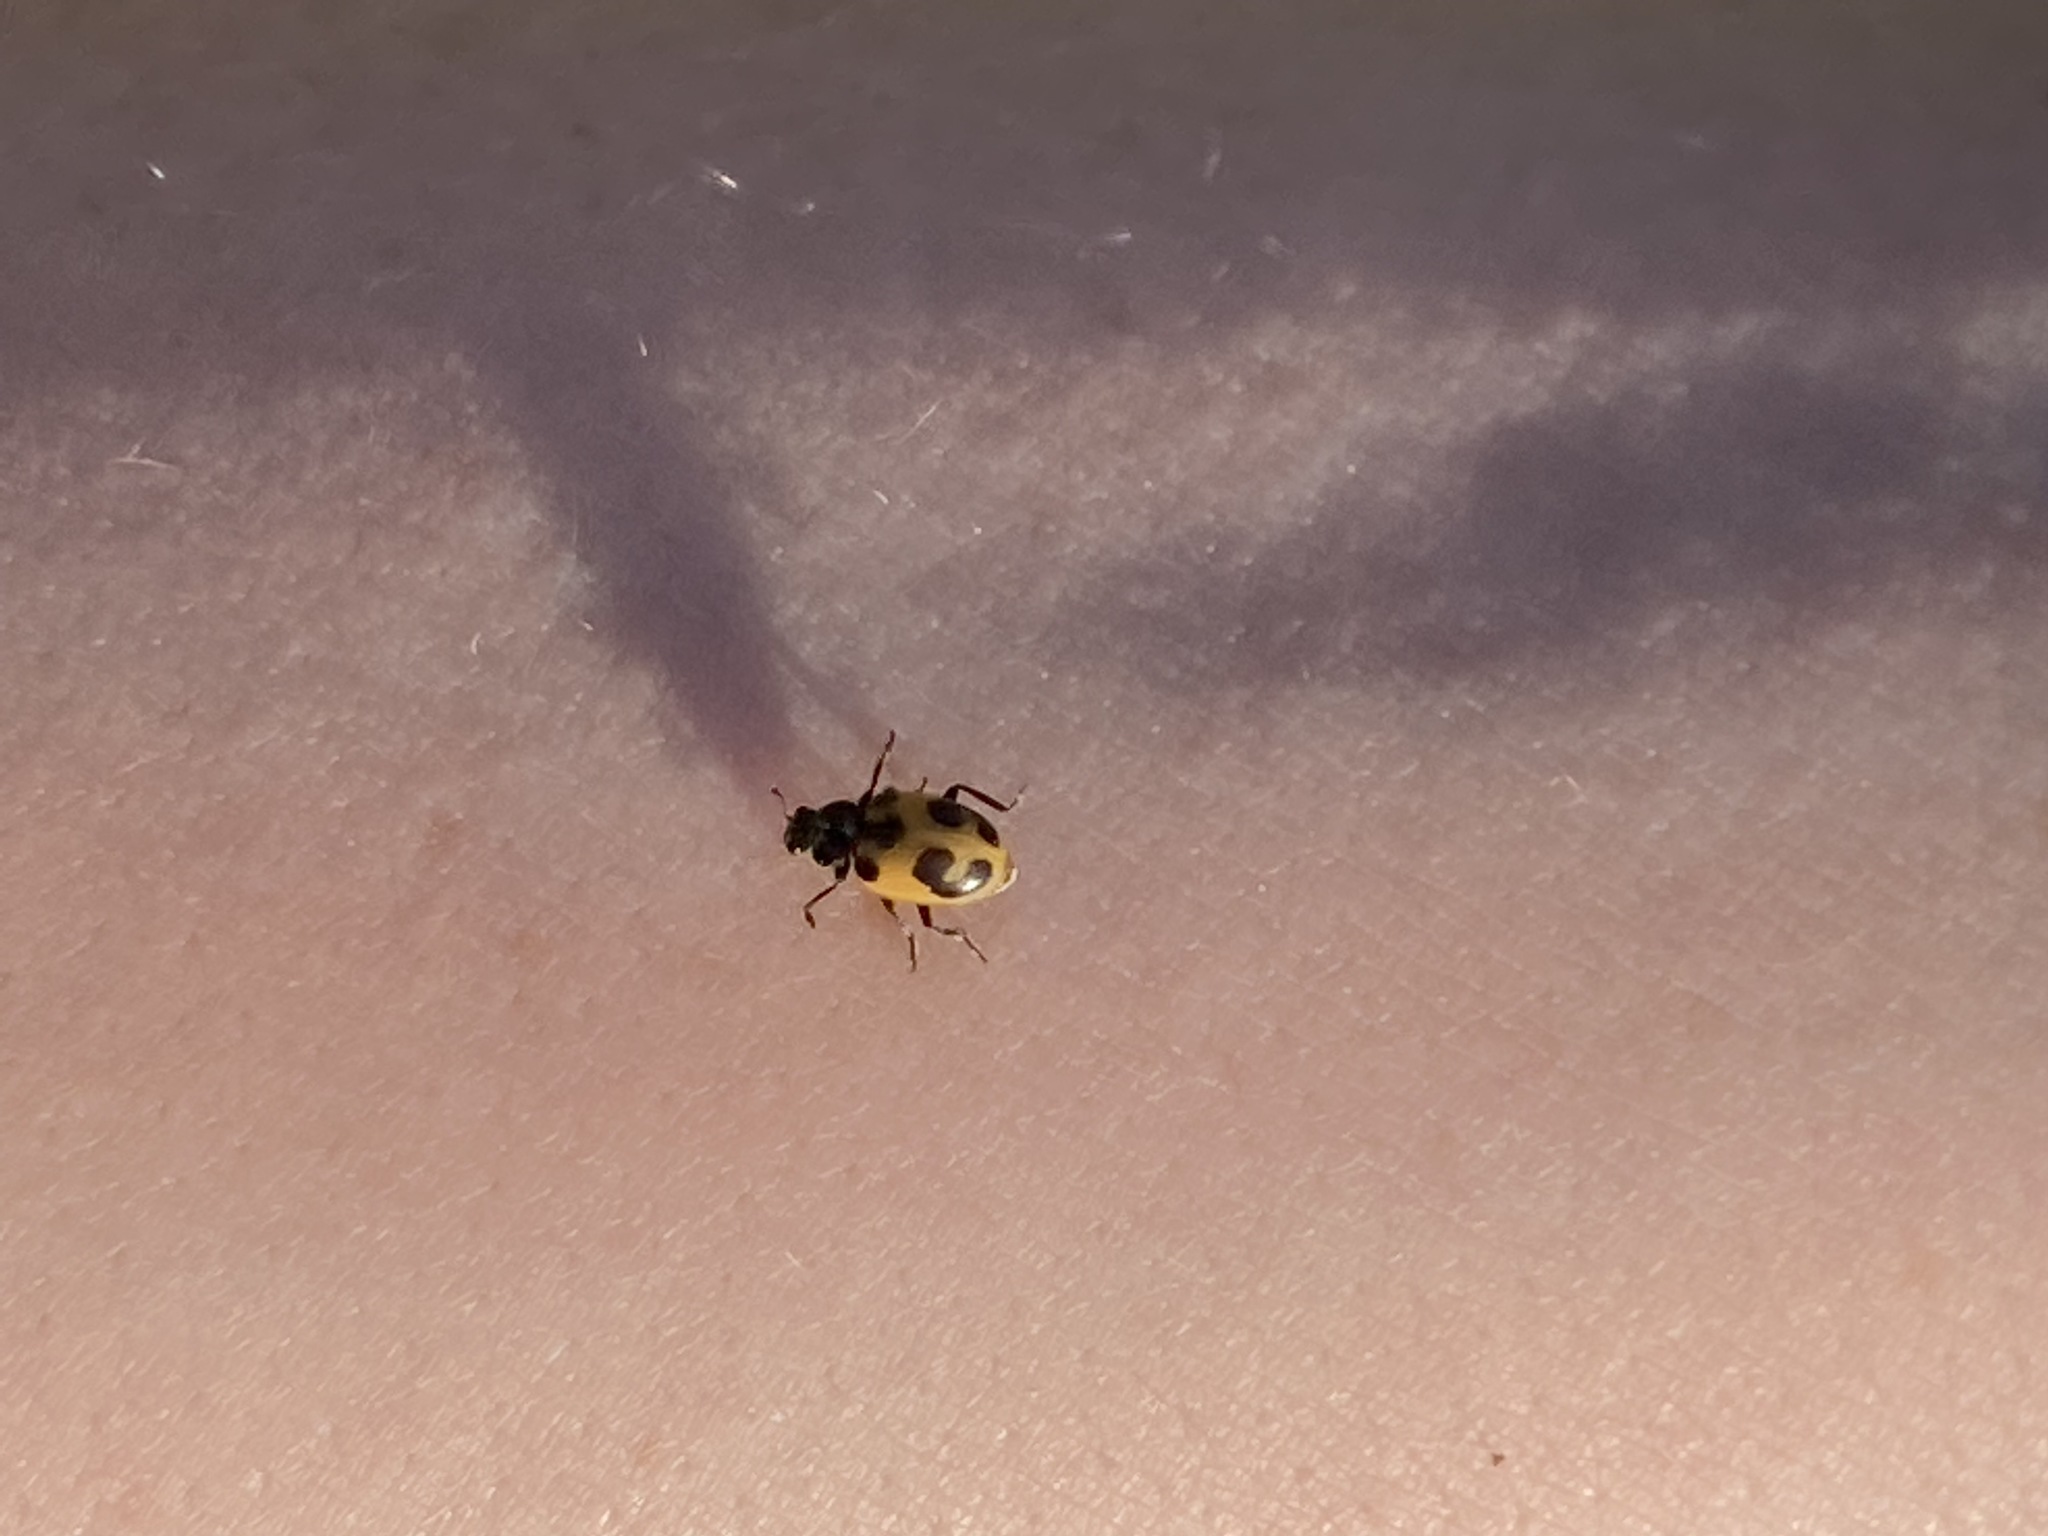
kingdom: Animalia
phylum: Arthropoda
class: Insecta
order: Coleoptera
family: Coccinellidae
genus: Hippodamia
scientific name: Hippodamia parenthesis
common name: Parenthesis lady beetle
